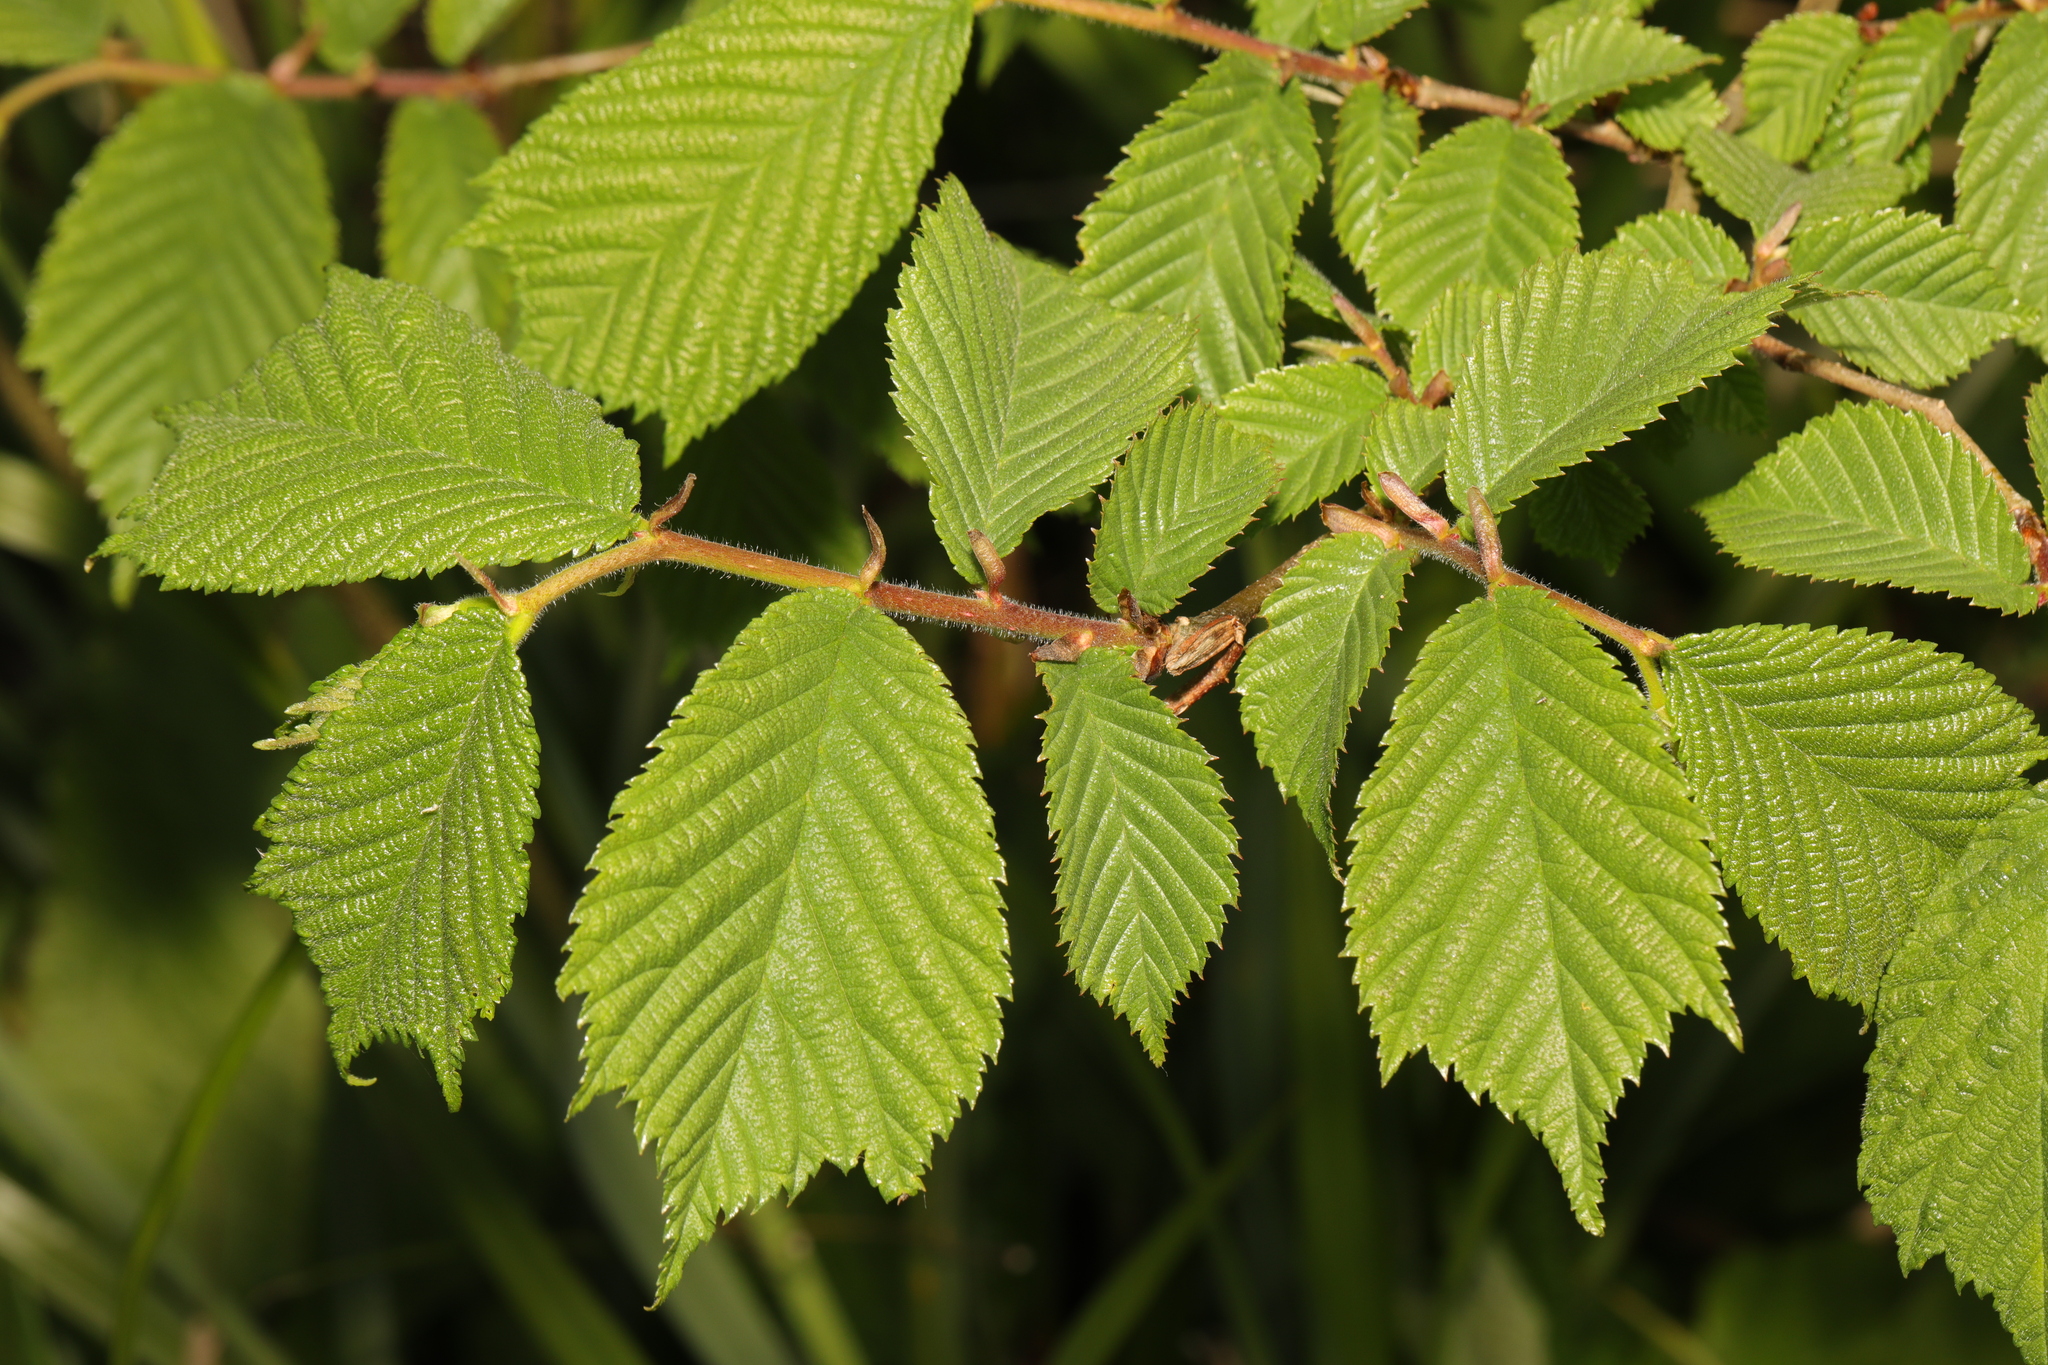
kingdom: Plantae
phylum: Tracheophyta
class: Magnoliopsida
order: Rosales
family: Ulmaceae
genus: Ulmus
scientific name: Ulmus glabra
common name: Wych elm
